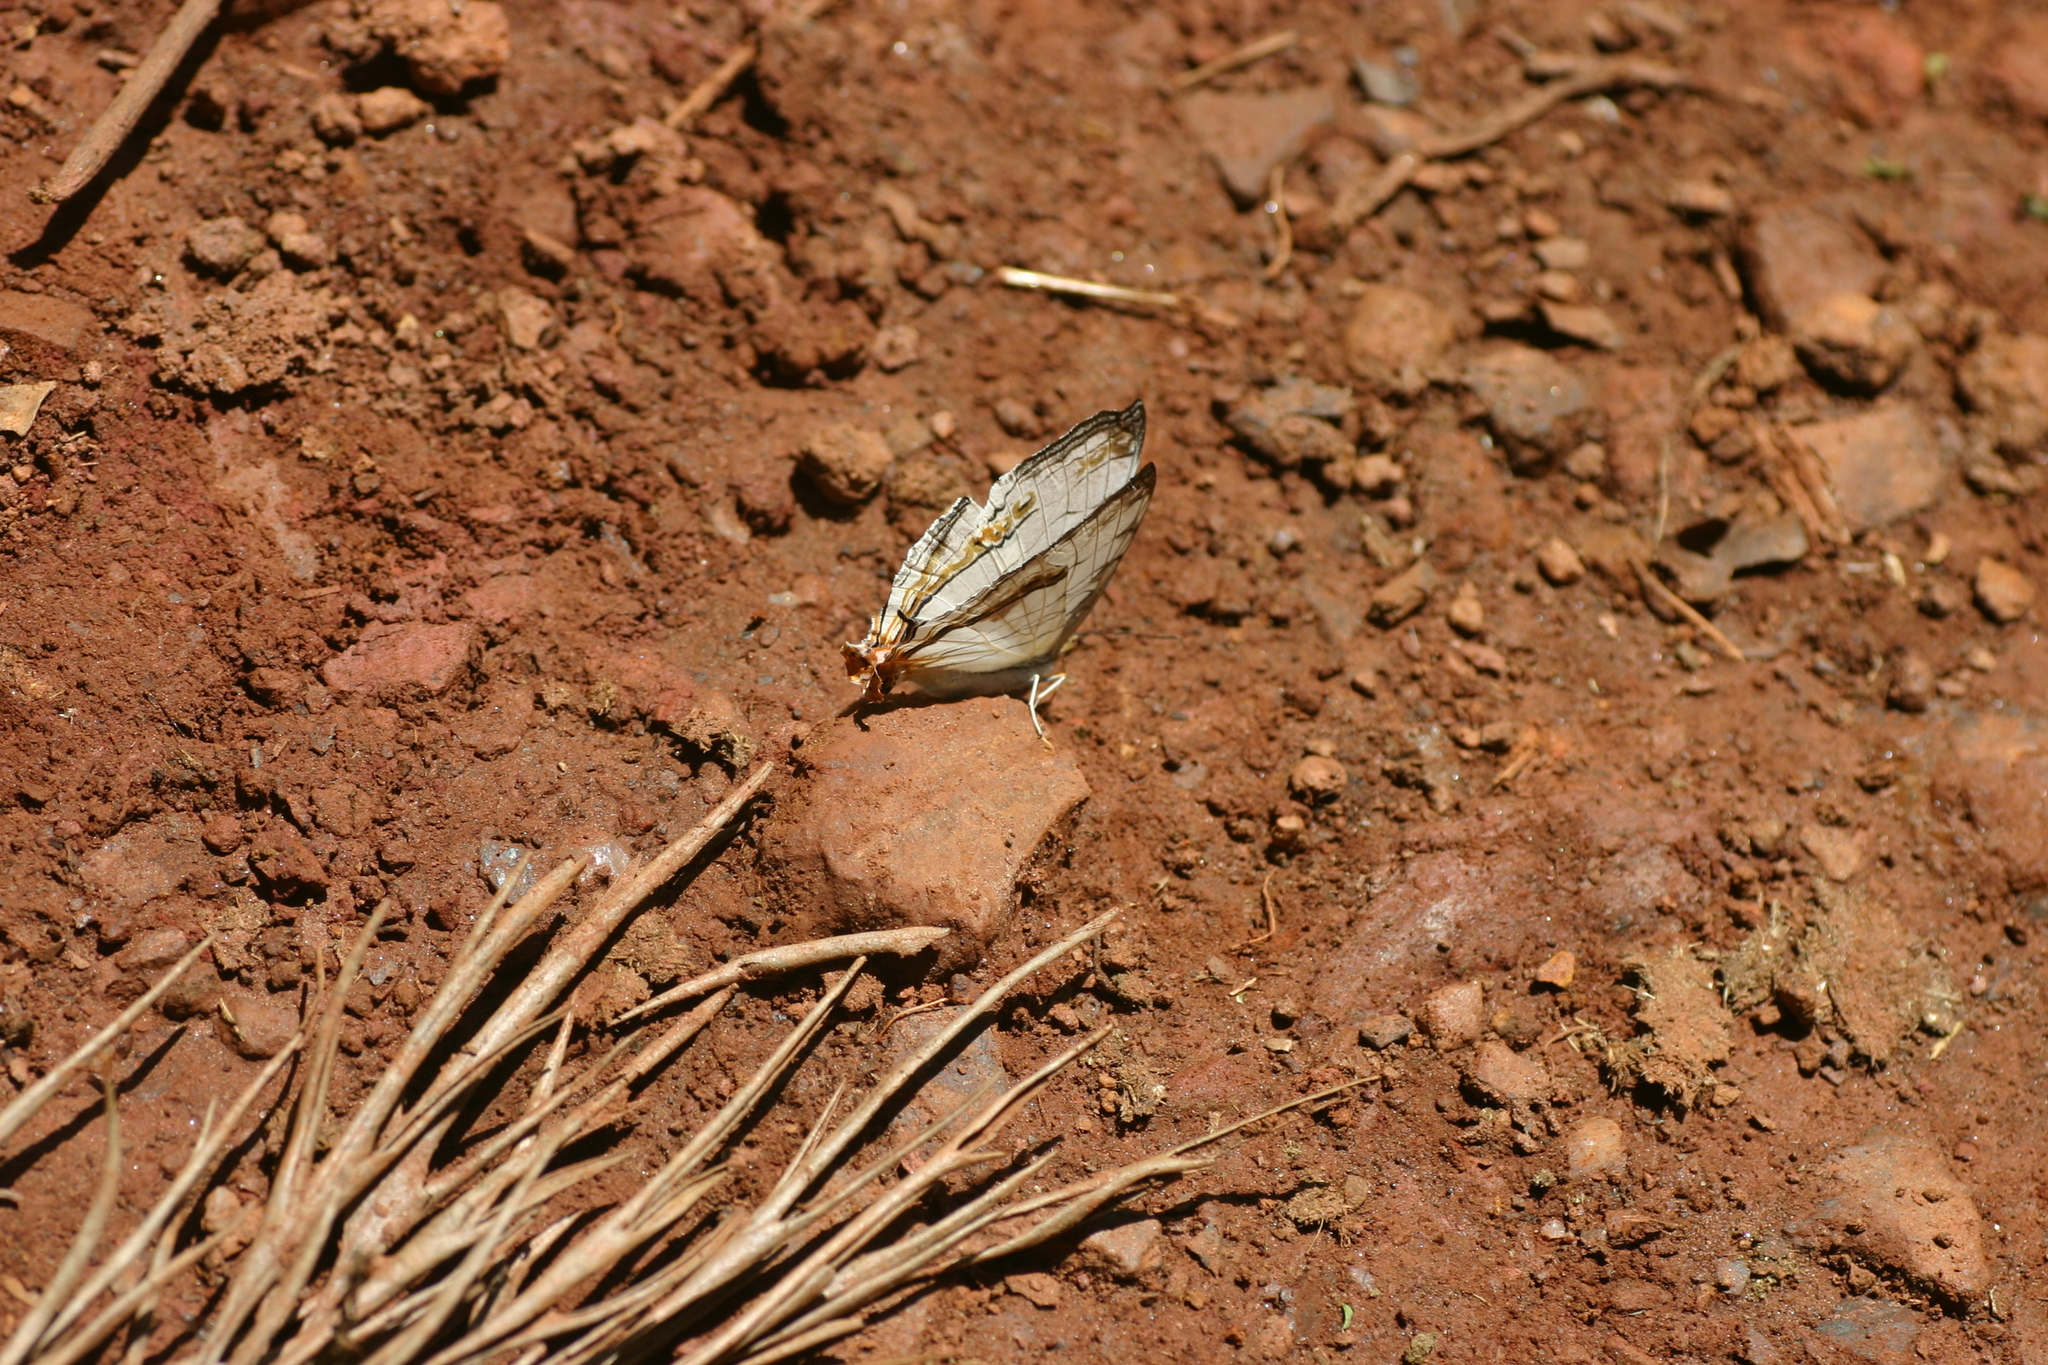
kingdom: Animalia
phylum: Arthropoda
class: Insecta
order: Lepidoptera
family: Nymphalidae
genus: Cyrestis
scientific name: Cyrestis thyodamas
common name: Common mapwing
